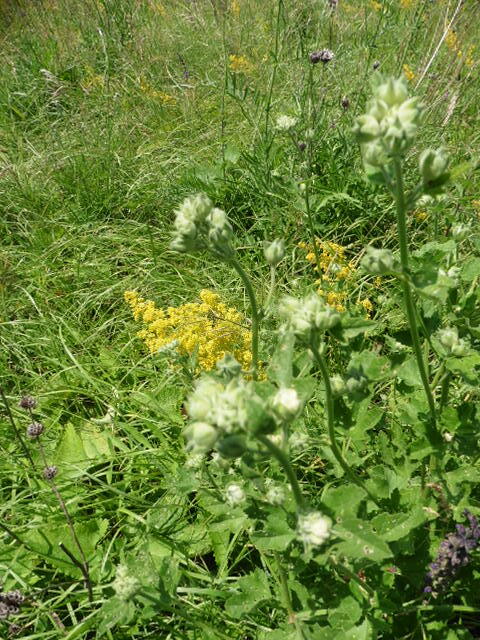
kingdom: Plantae
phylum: Tracheophyta
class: Magnoliopsida
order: Malvales
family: Malvaceae
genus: Malva
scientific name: Malva thuringiaca
